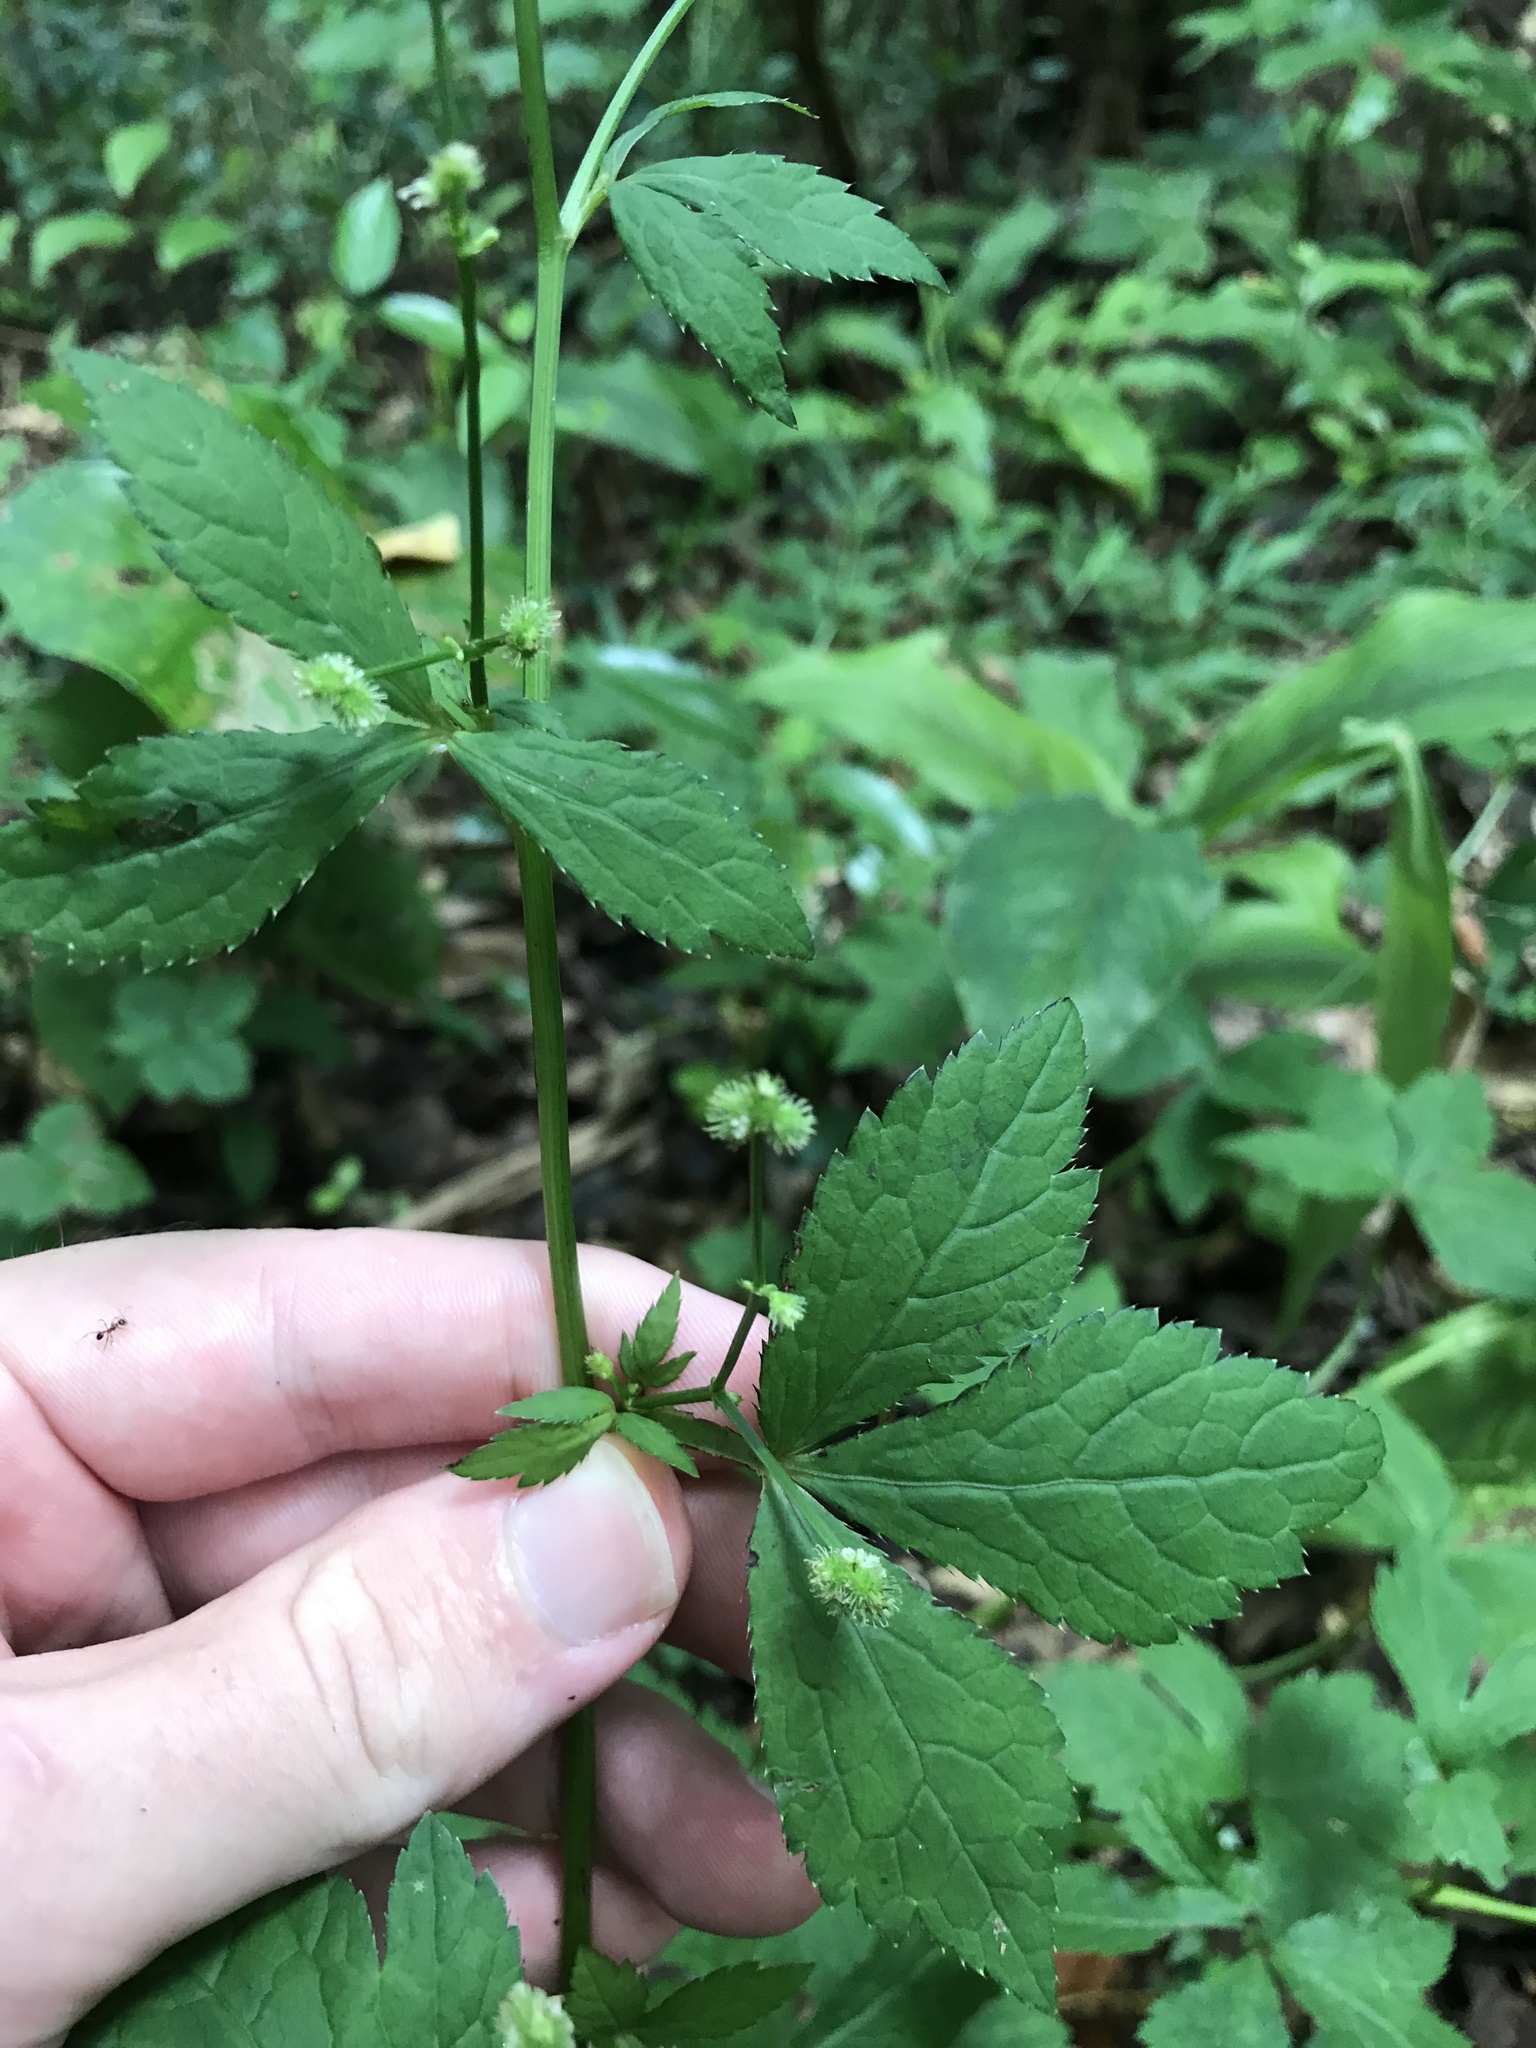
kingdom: Plantae
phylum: Tracheophyta
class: Magnoliopsida
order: Apiales
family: Apiaceae
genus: Sanicula
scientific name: Sanicula chinensis
